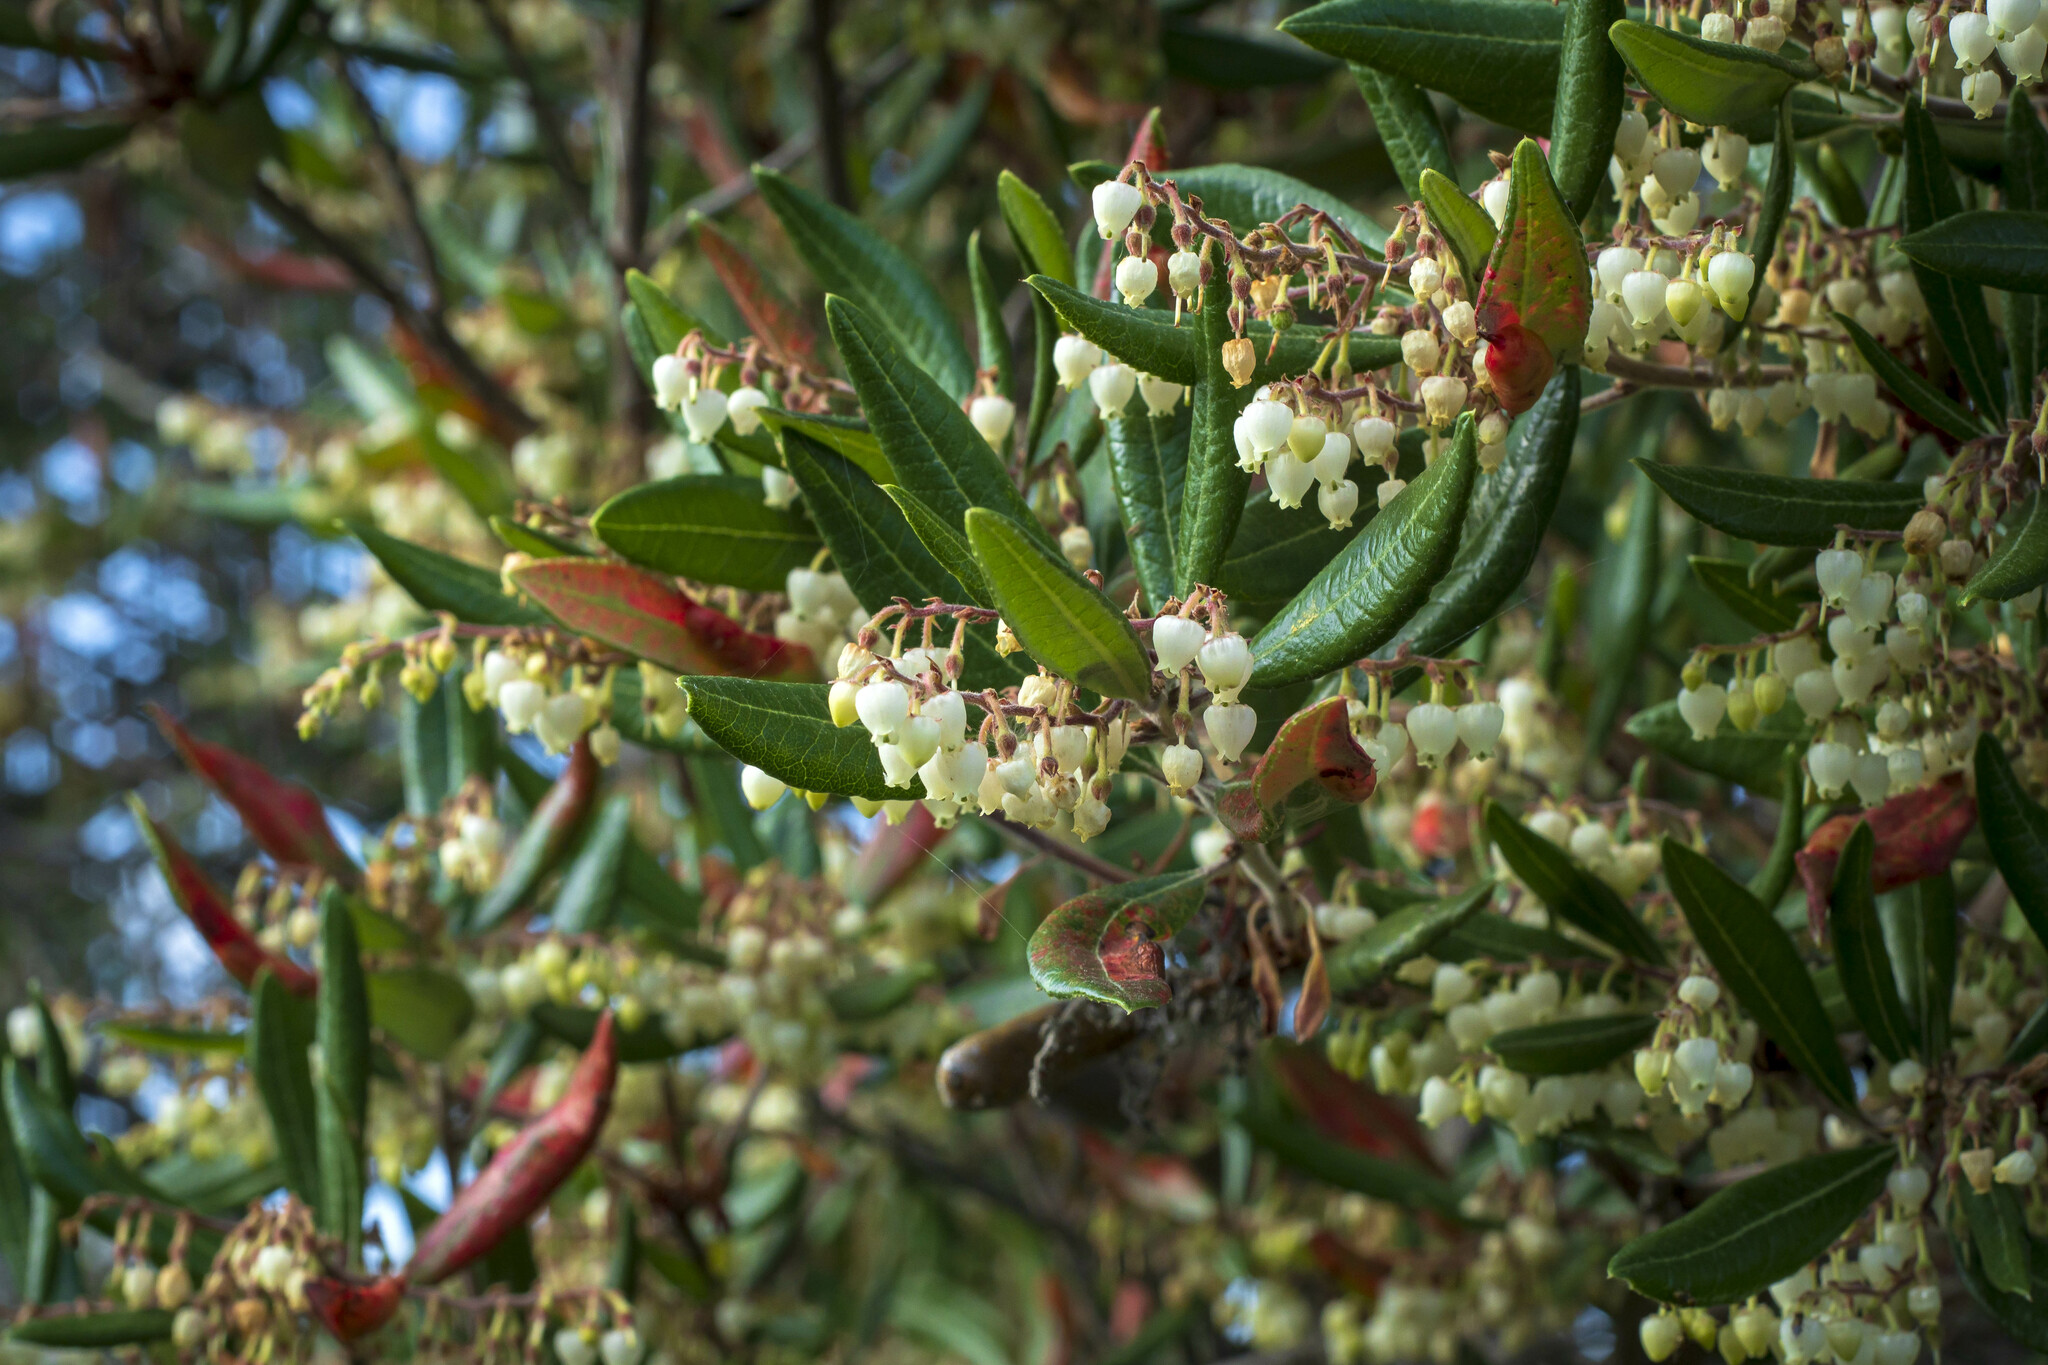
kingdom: Plantae
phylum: Tracheophyta
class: Magnoliopsida
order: Ericales
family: Ericaceae
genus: Comarostaphylis
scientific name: Comarostaphylis diversifolia
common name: Summer-holly
